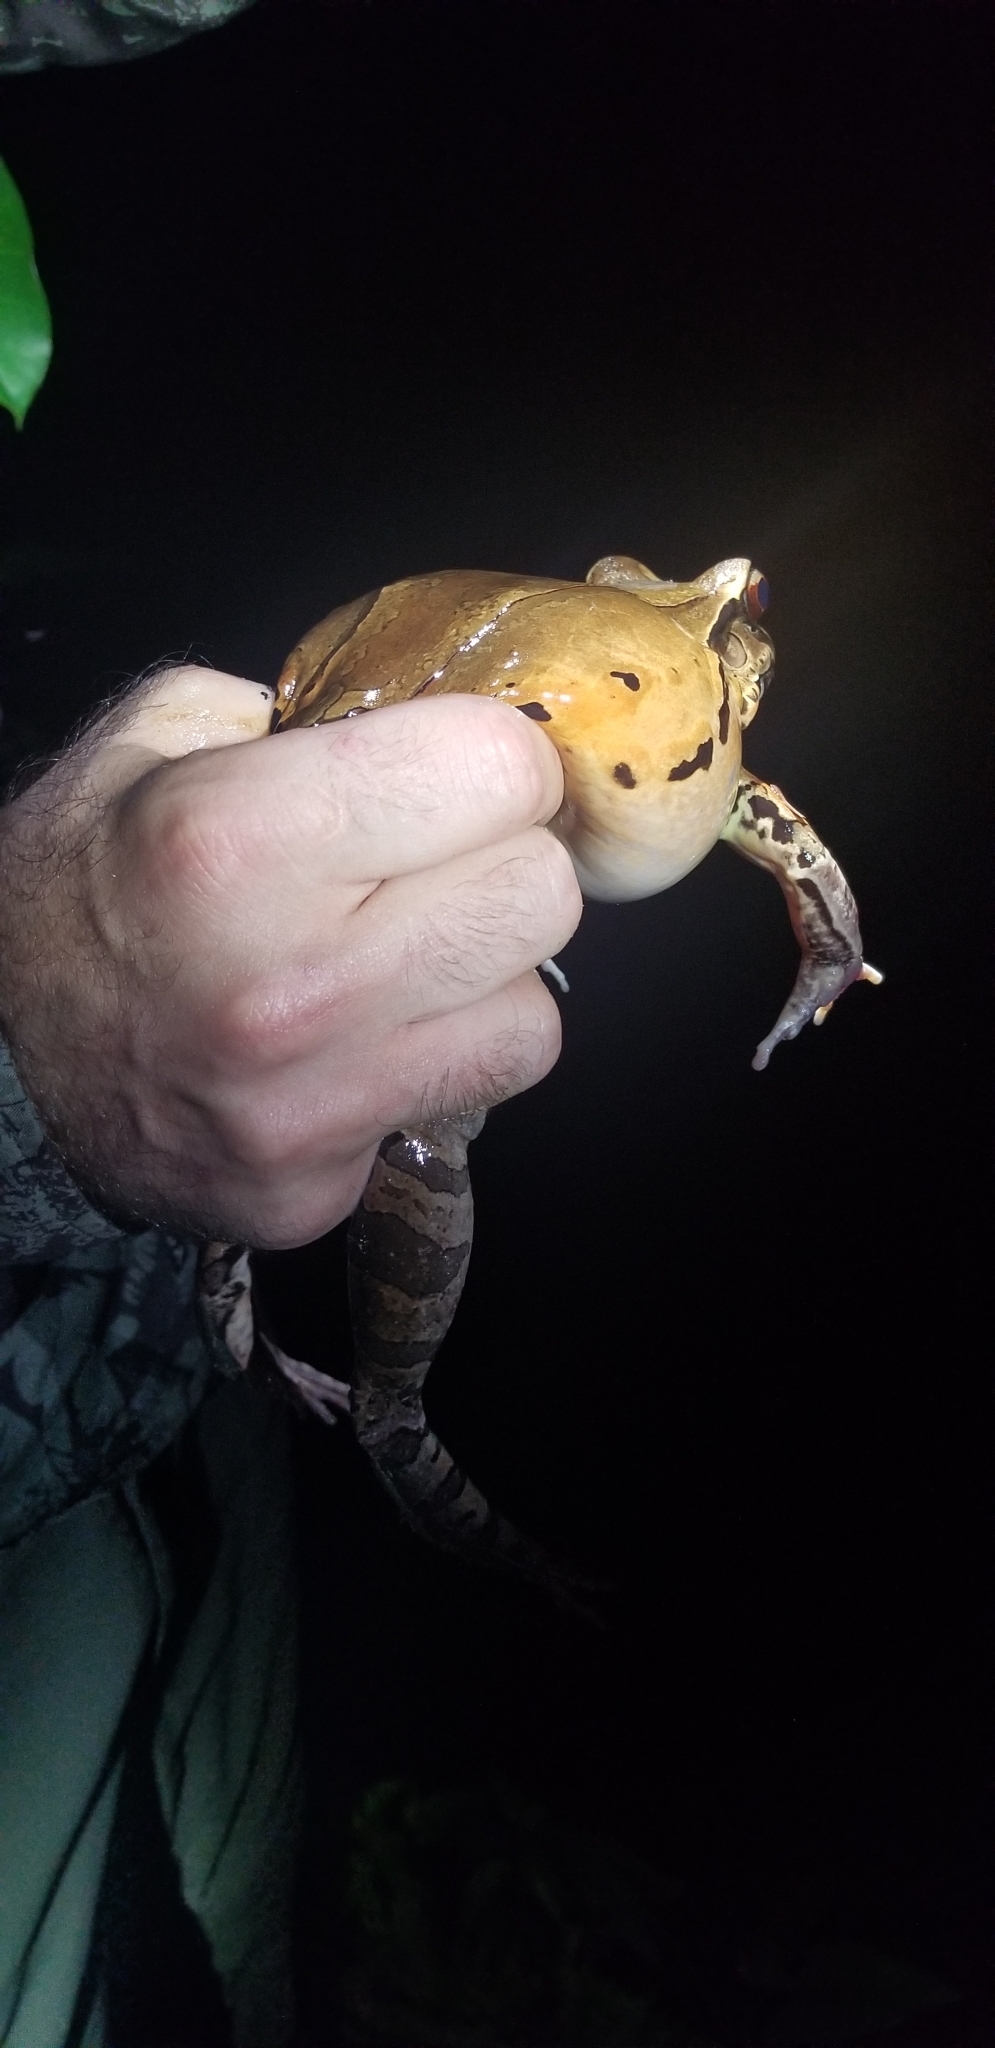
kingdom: Animalia
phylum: Chordata
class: Amphibia
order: Anura
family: Leptodactylidae
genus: Leptodactylus
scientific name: Leptodactylus pentadactylus
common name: Smoky jungle frog
